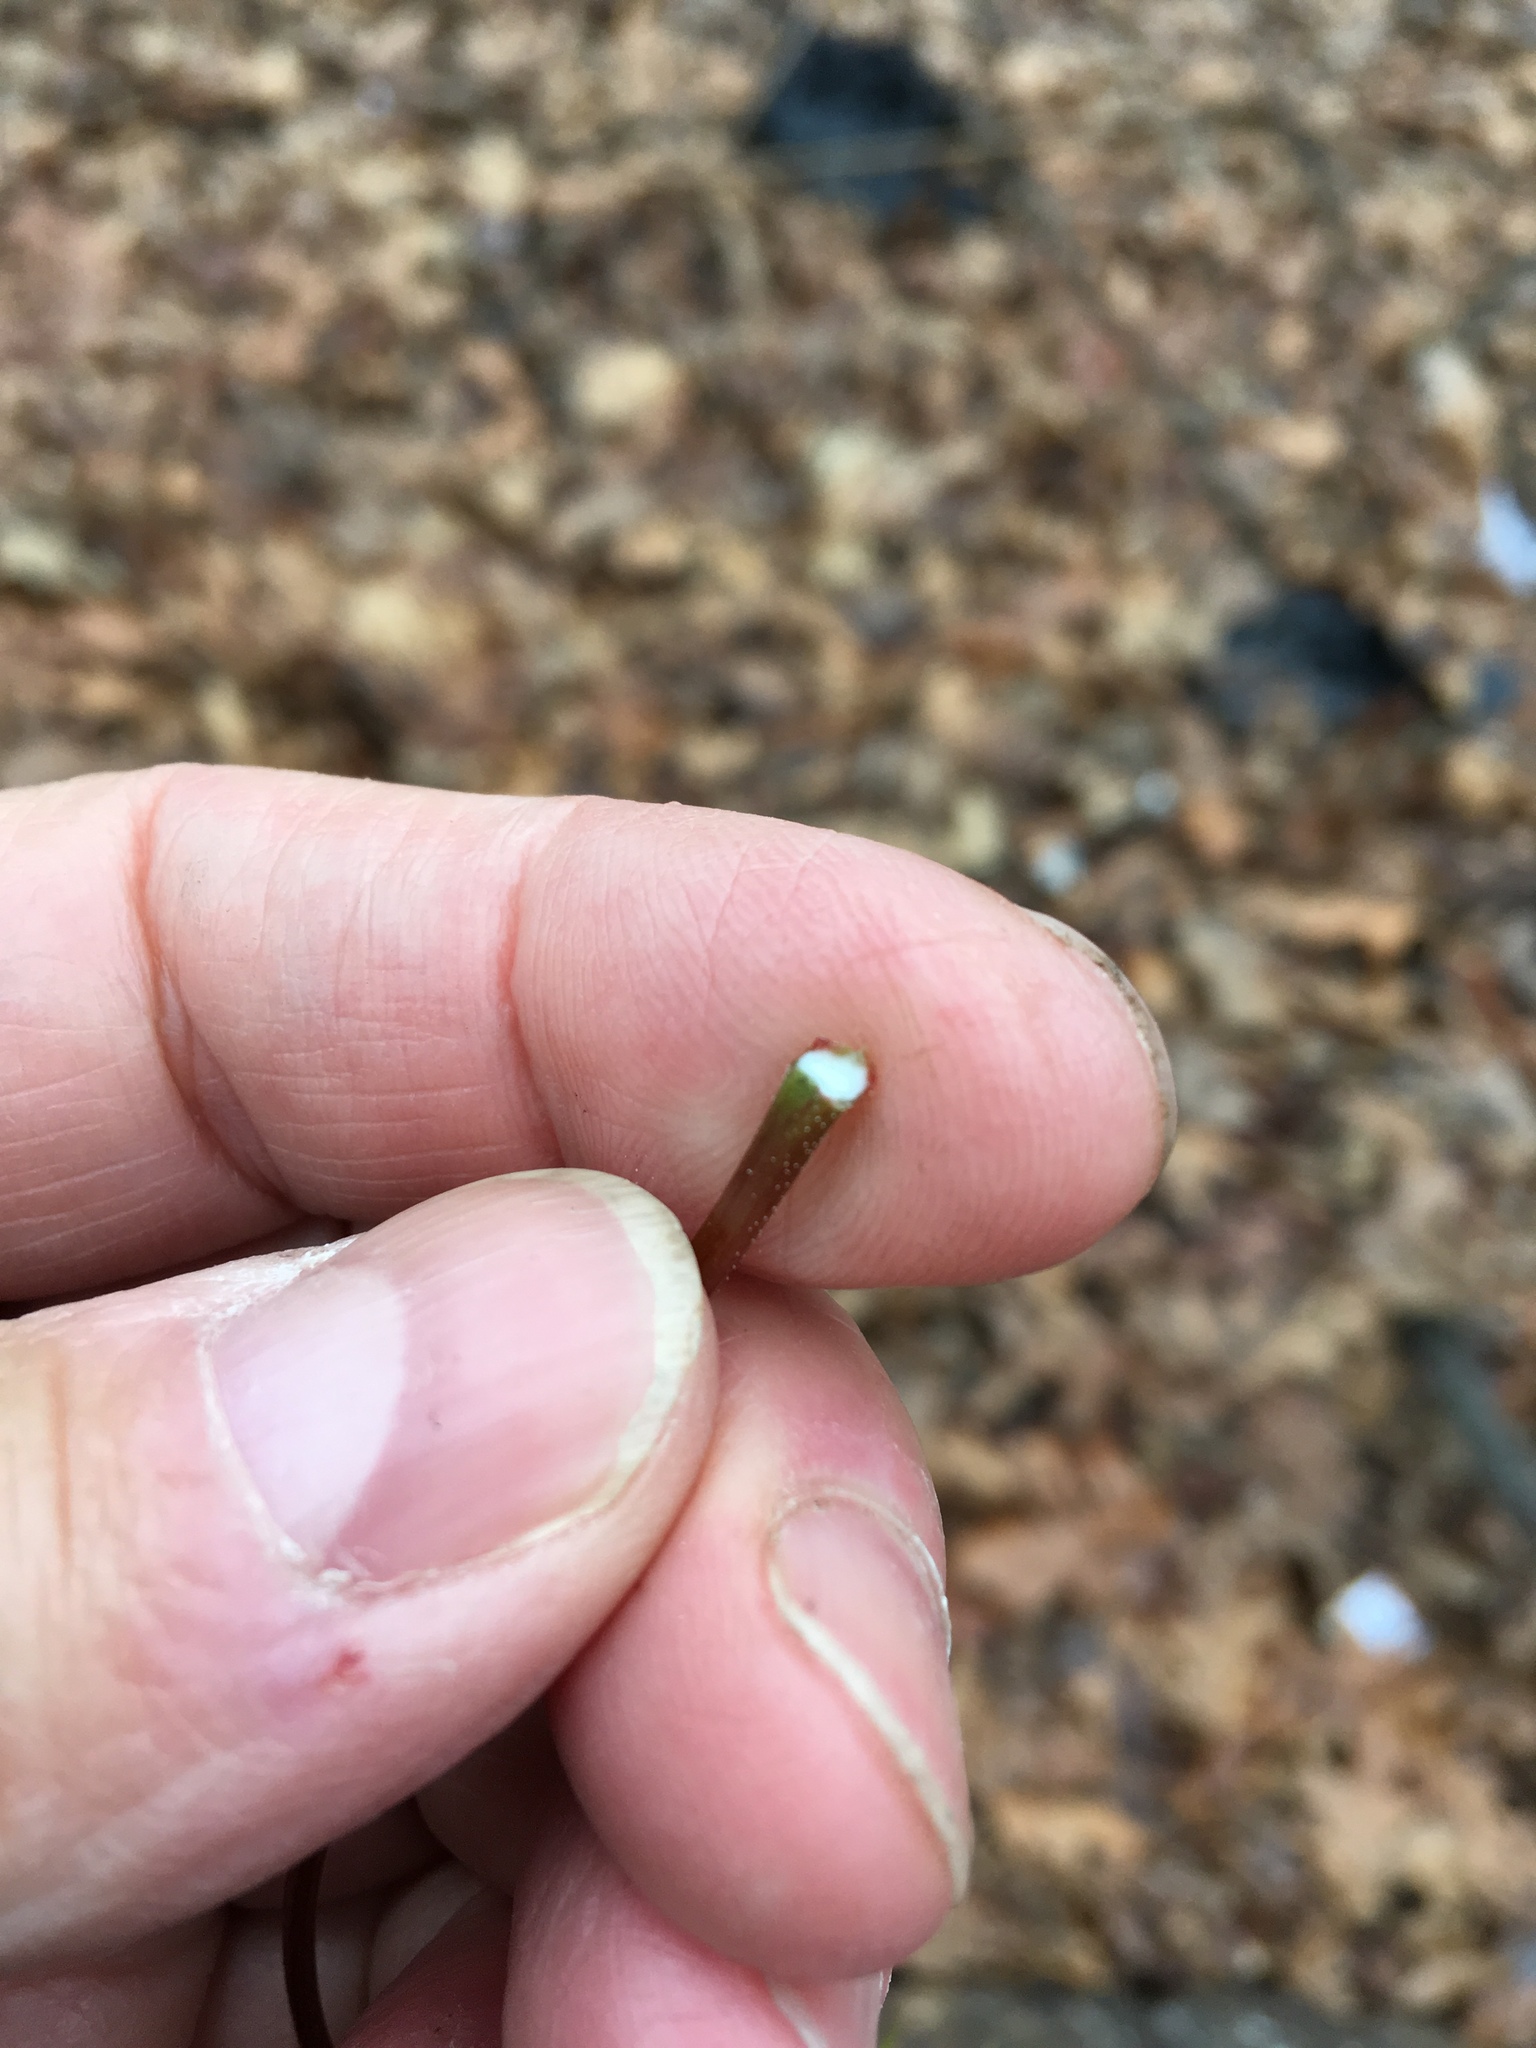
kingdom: Plantae
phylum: Tracheophyta
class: Magnoliopsida
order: Sapindales
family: Sapindaceae
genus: Acer
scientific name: Acer platanoides
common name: Norway maple
